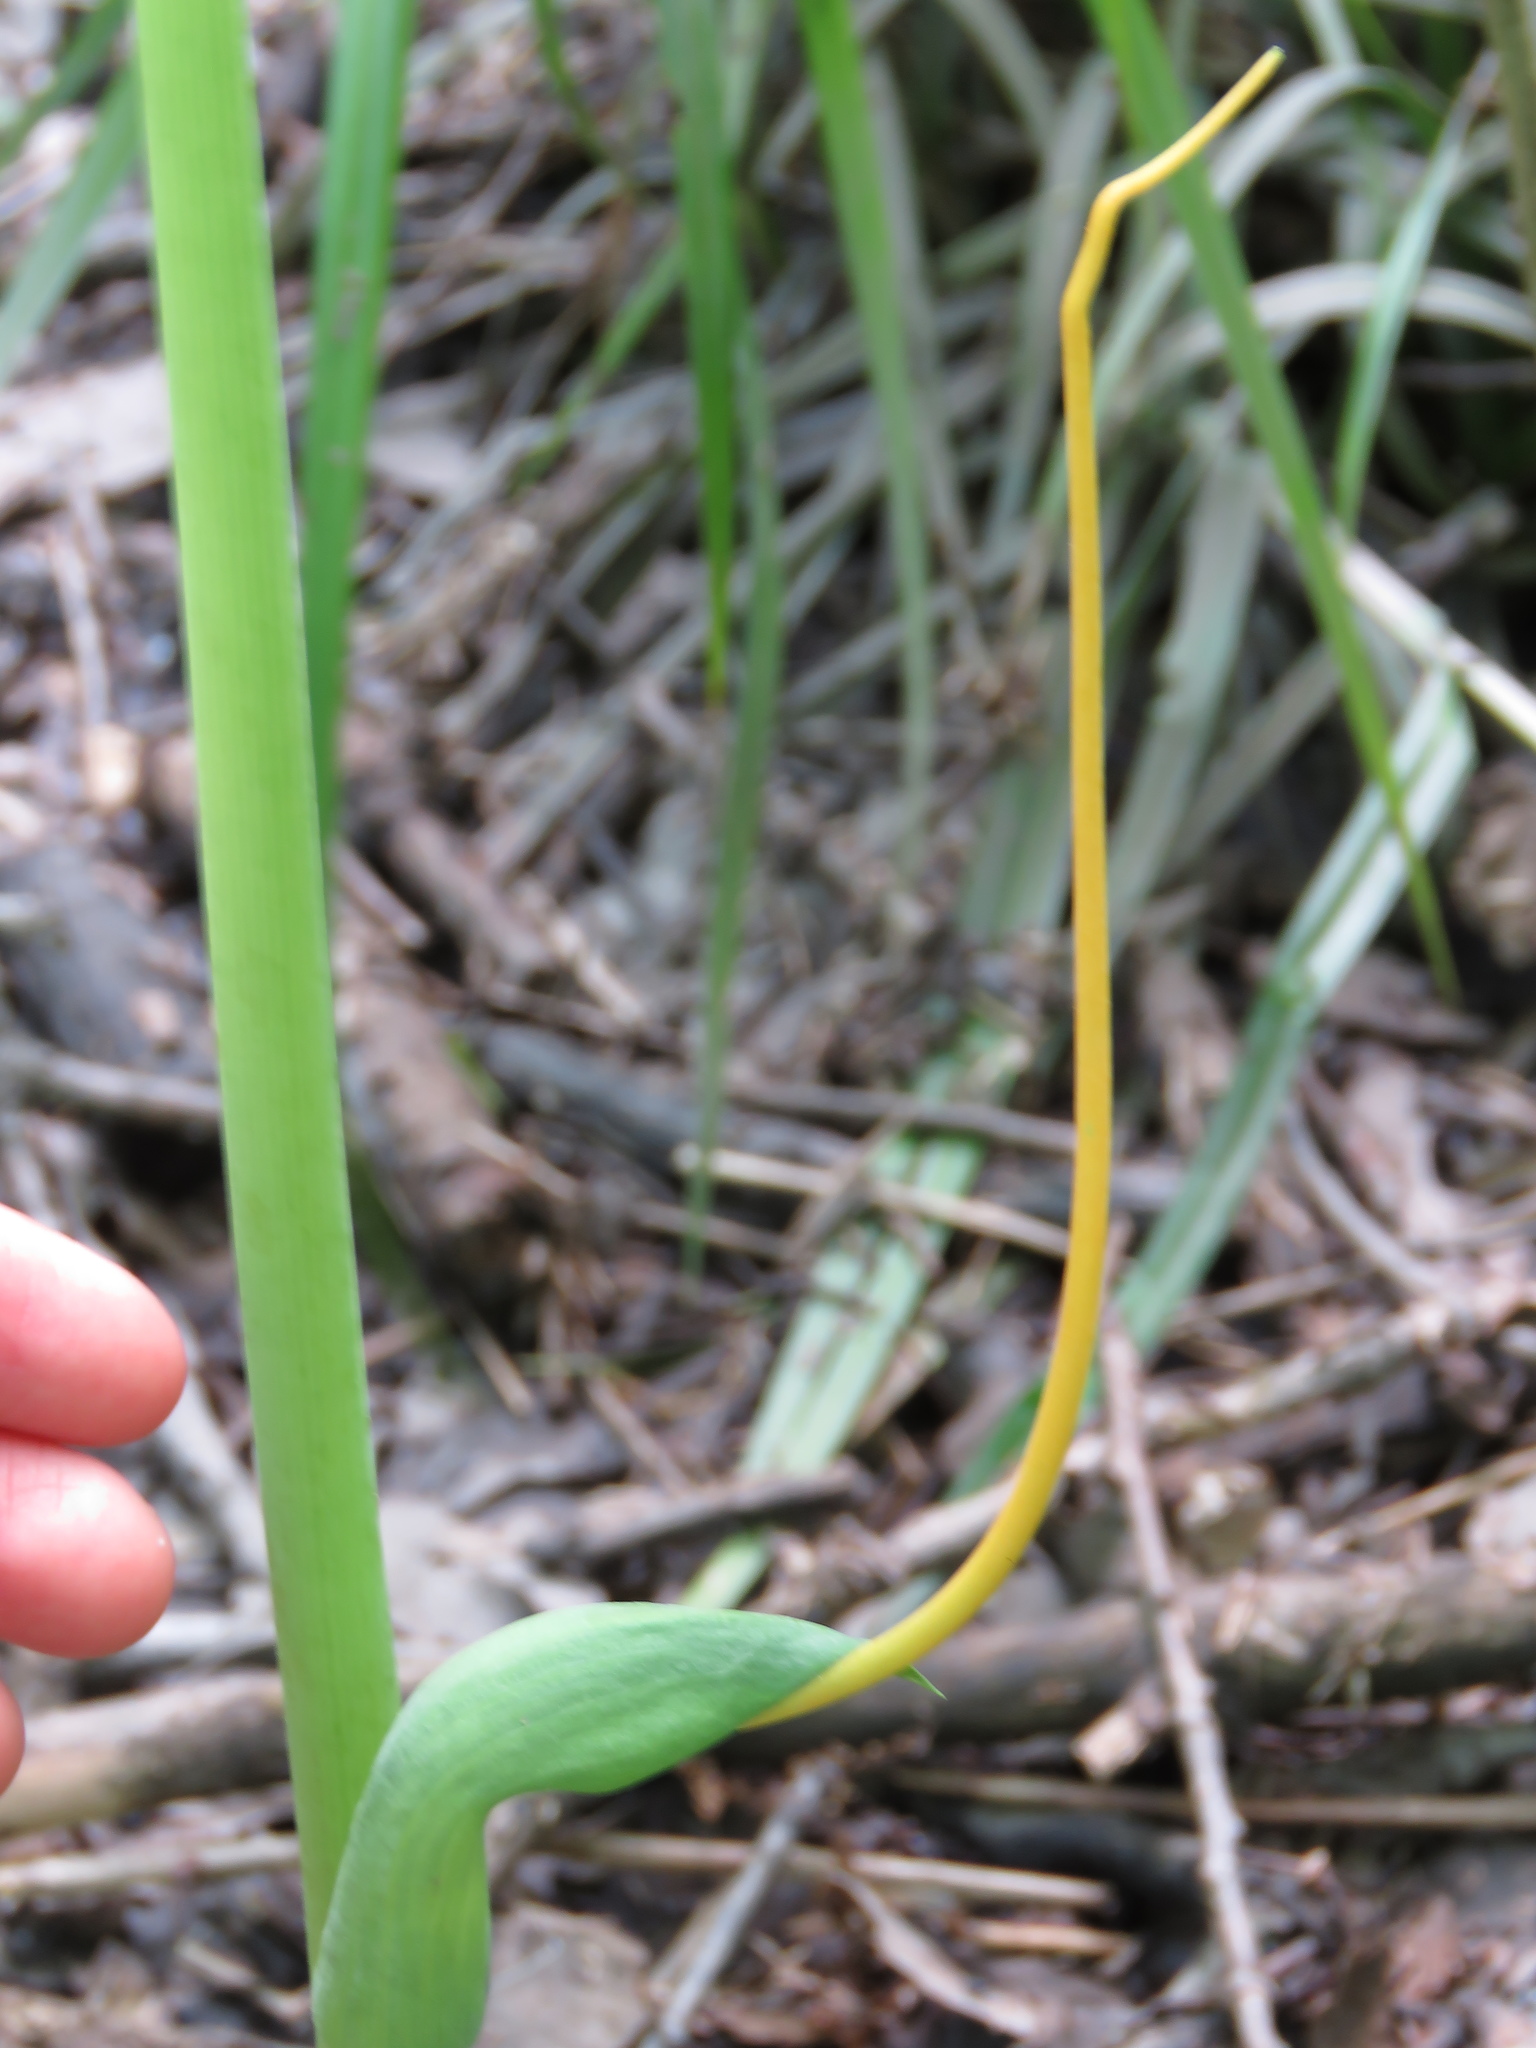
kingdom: Plantae
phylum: Tracheophyta
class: Liliopsida
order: Alismatales
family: Araceae
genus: Arisaema
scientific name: Arisaema dracontium
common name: Dragon-arum
